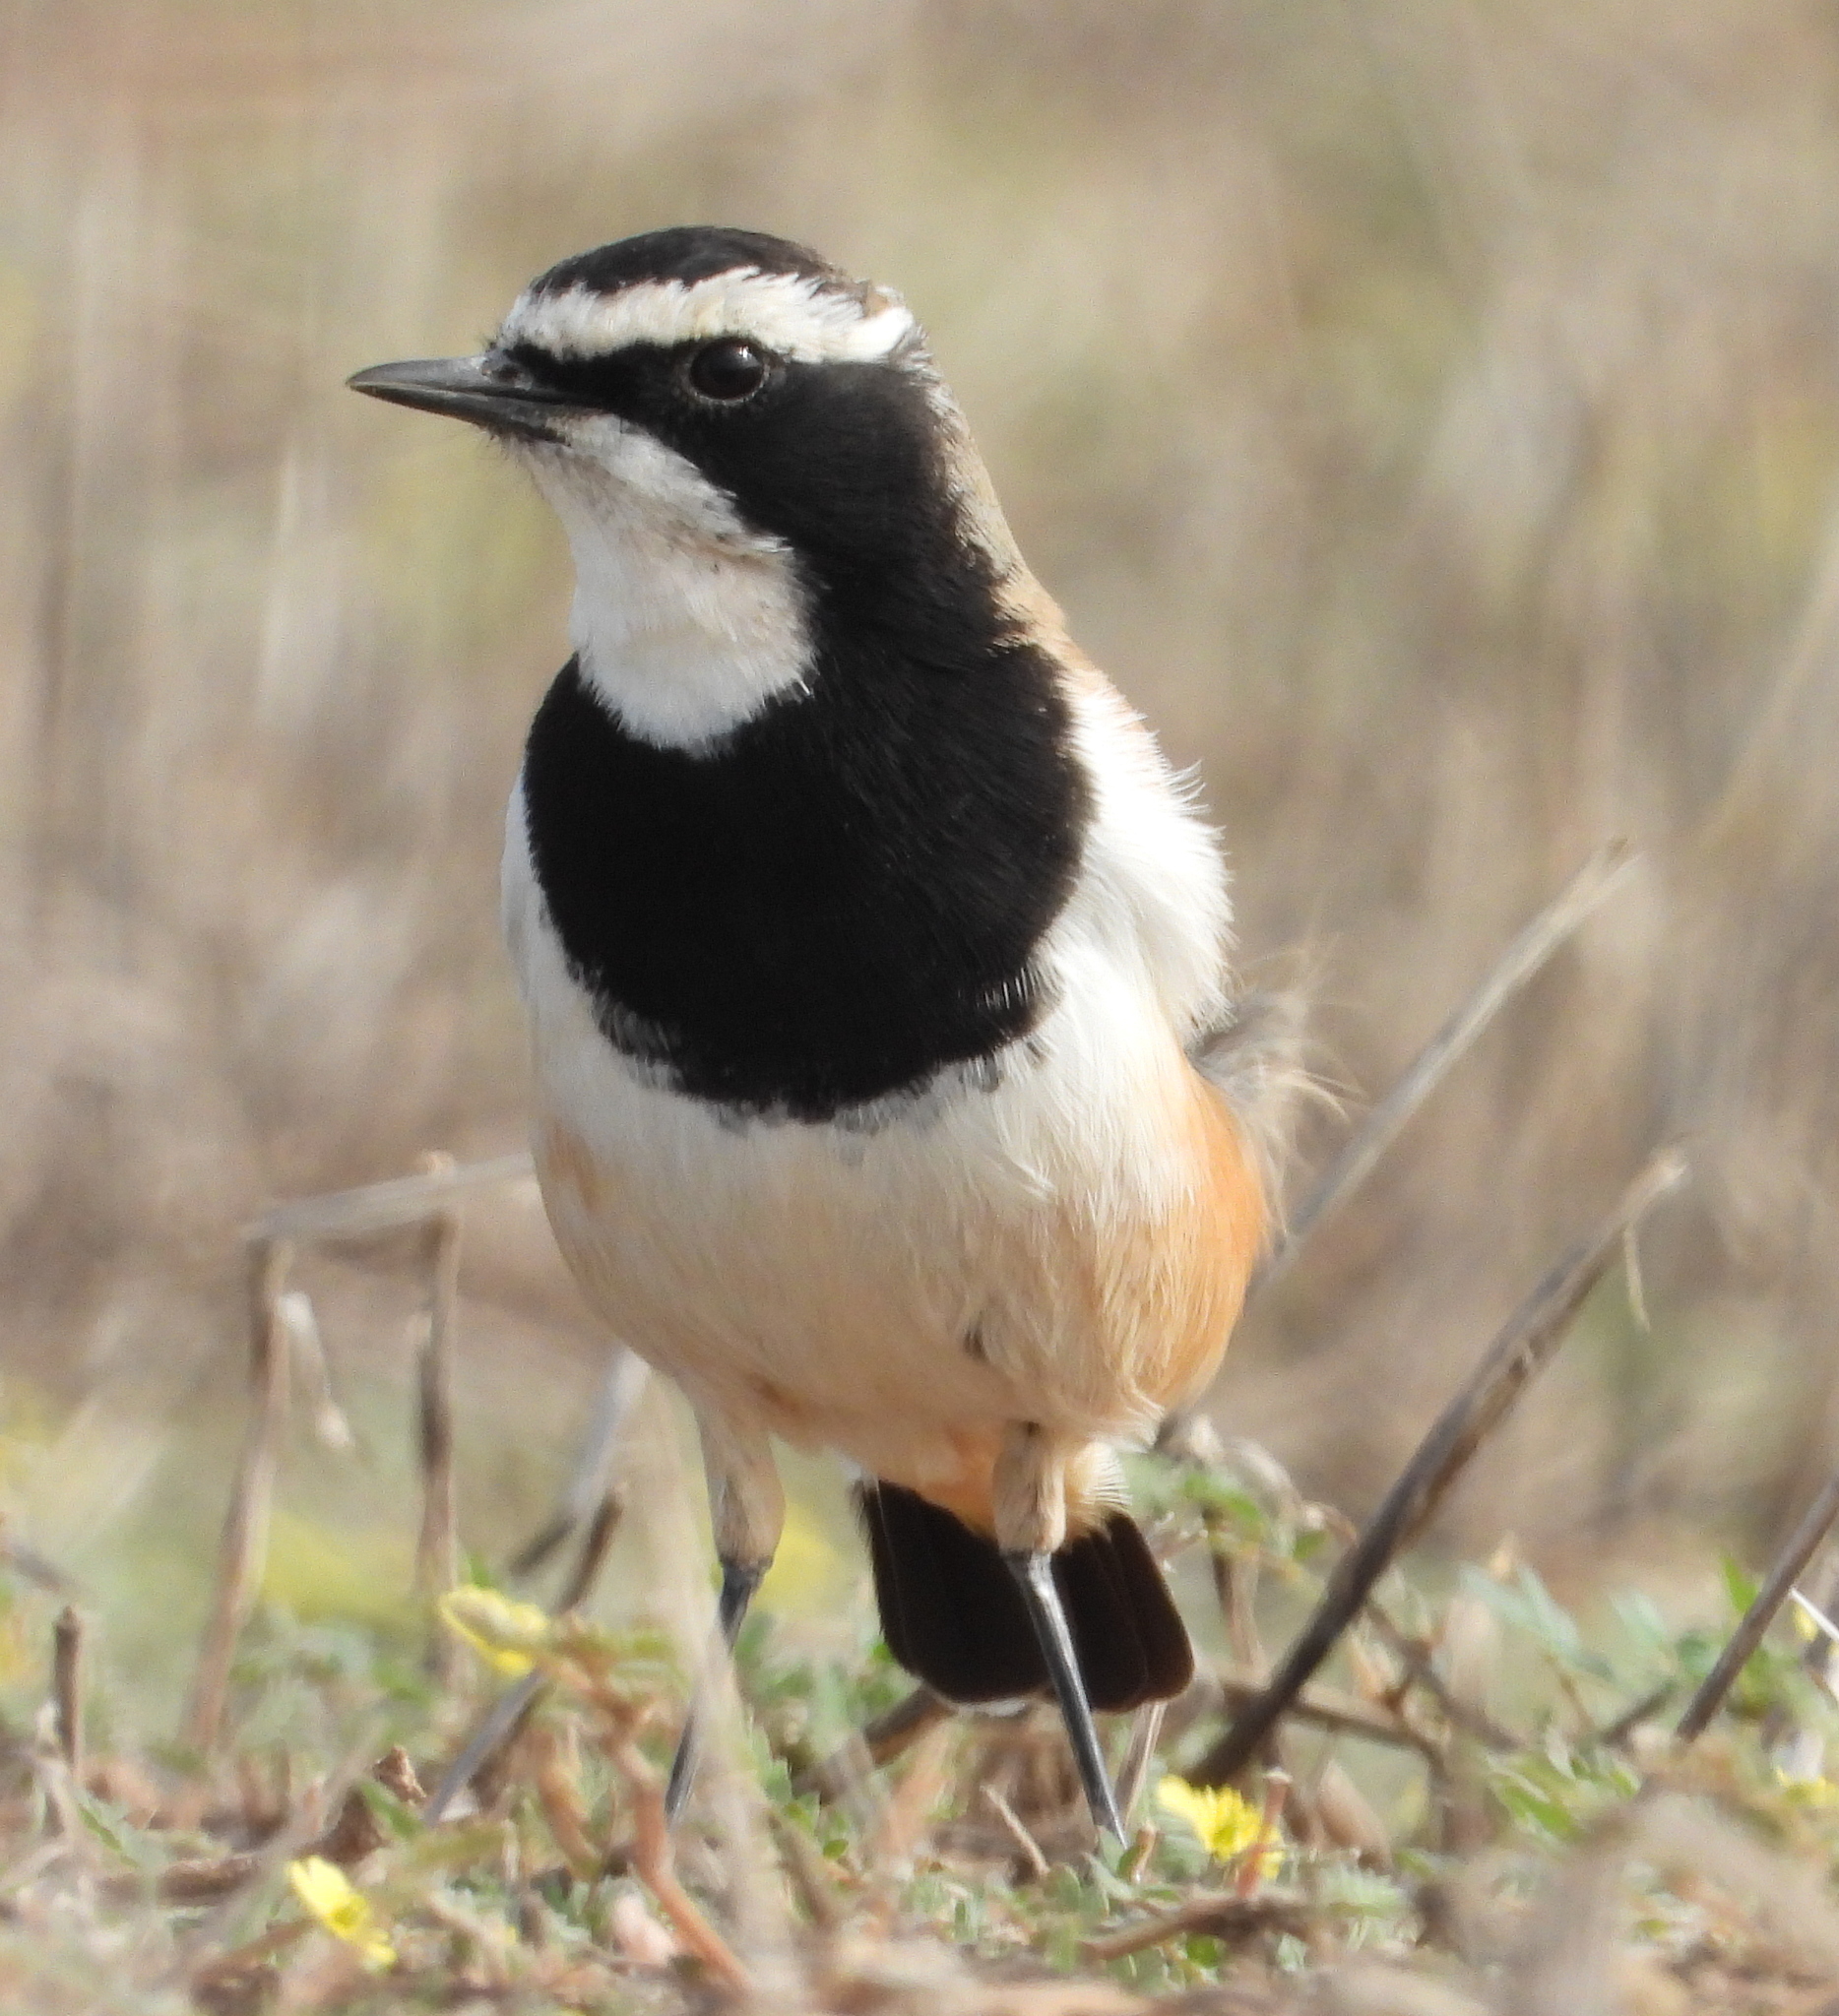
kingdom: Animalia
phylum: Chordata
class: Aves
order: Passeriformes
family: Muscicapidae
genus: Oenanthe
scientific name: Oenanthe pileata
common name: Capped wheatear
